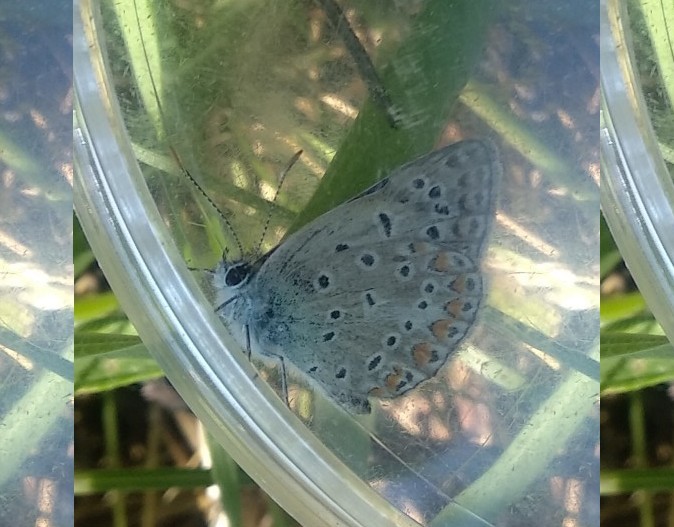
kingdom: Animalia
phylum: Arthropoda
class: Insecta
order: Lepidoptera
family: Lycaenidae
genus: Polyommatus
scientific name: Polyommatus icarus
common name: Common blue
